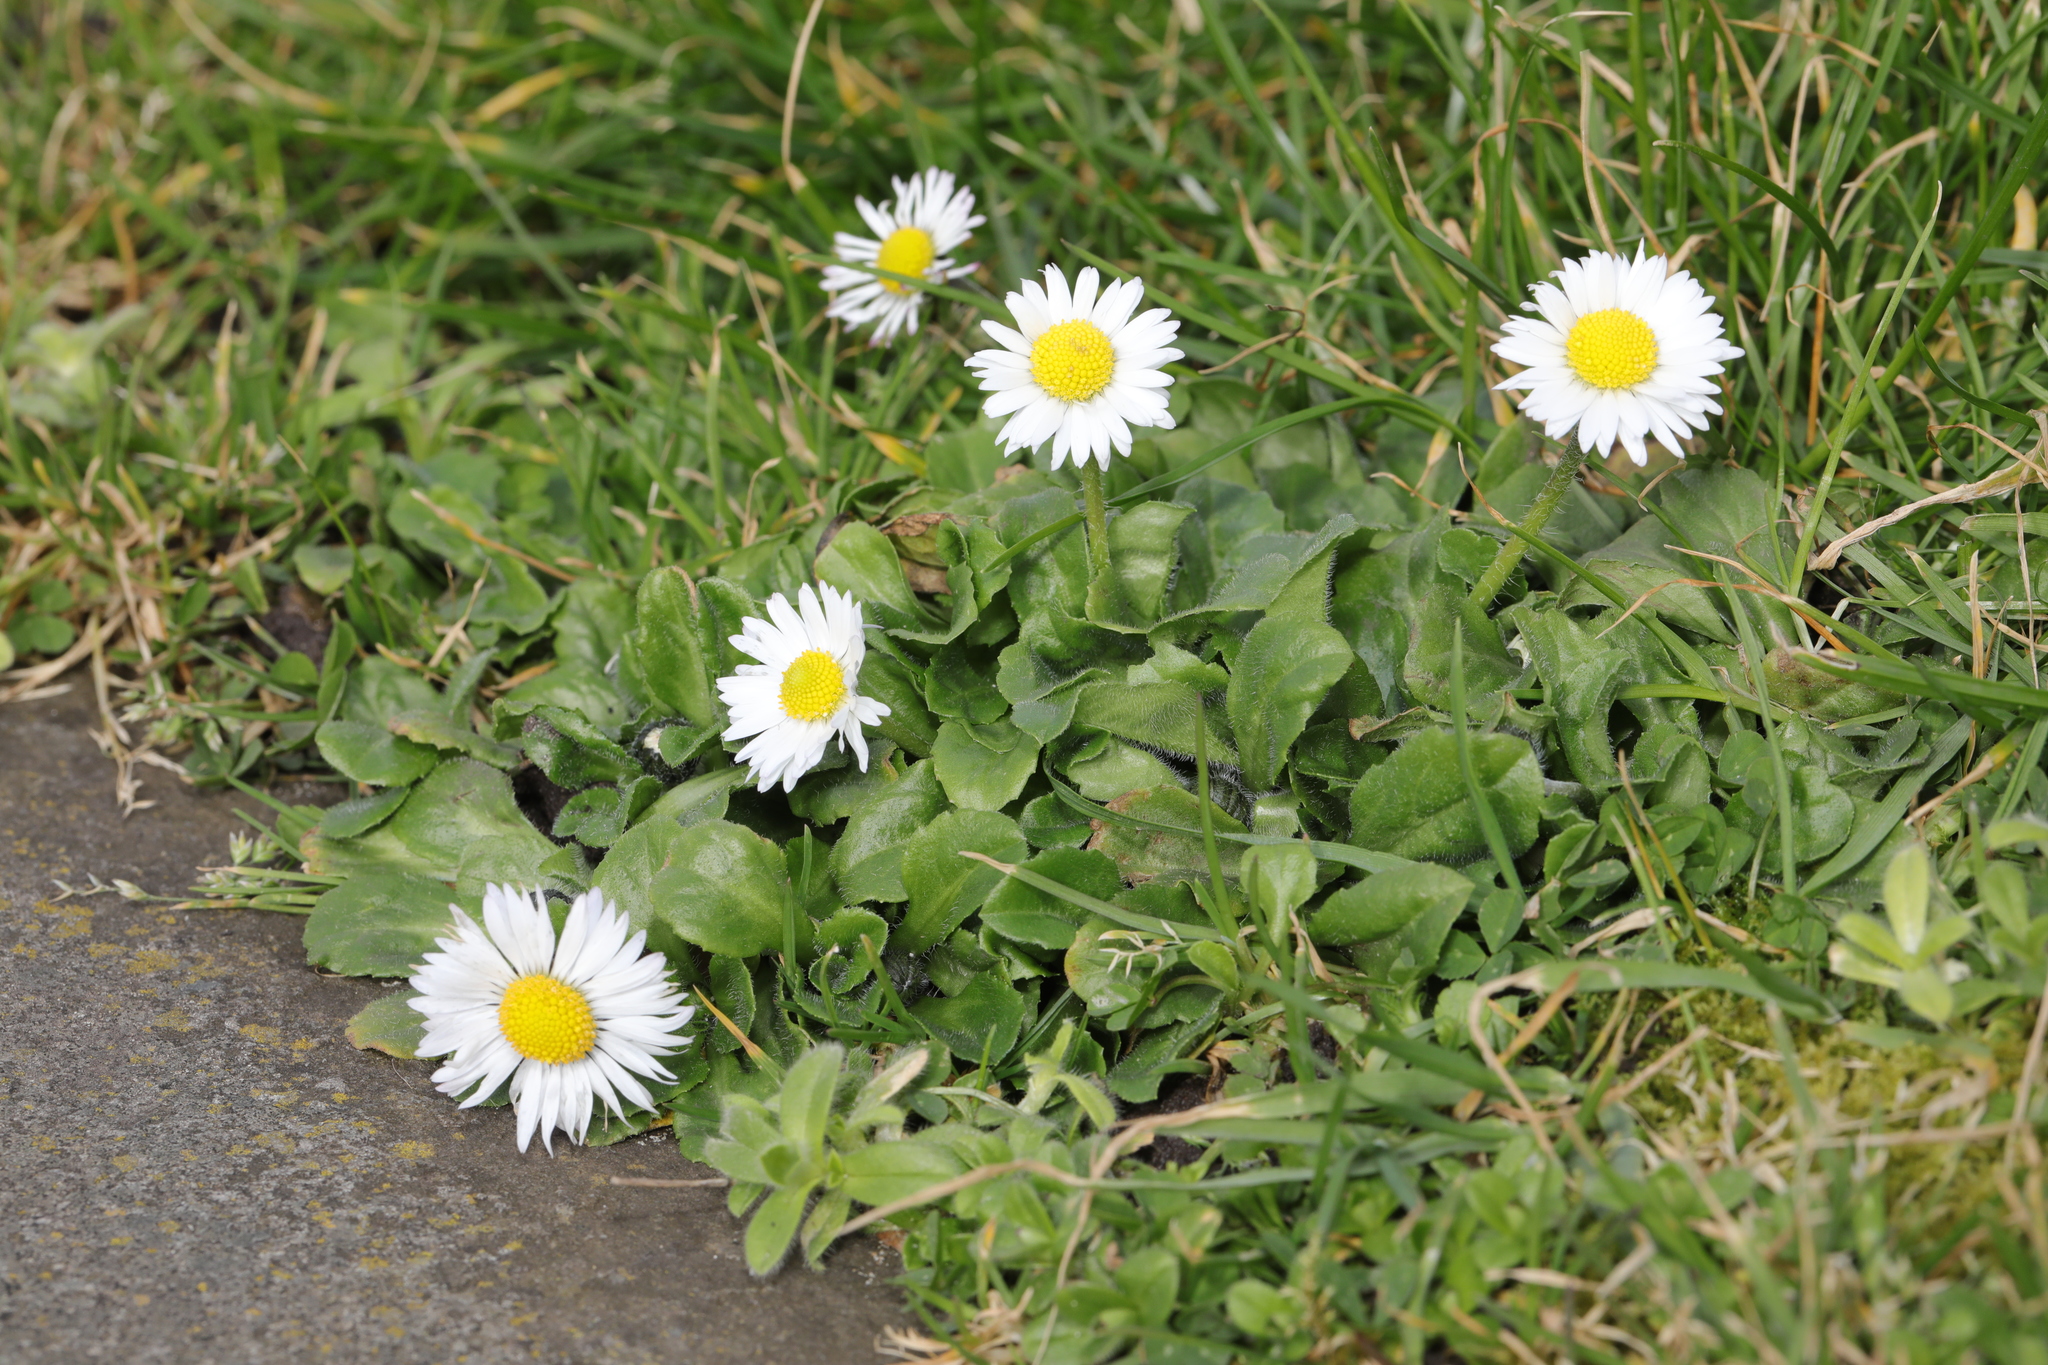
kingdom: Plantae
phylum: Tracheophyta
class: Magnoliopsida
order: Asterales
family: Asteraceae
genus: Bellis
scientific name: Bellis perennis
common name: Lawndaisy
